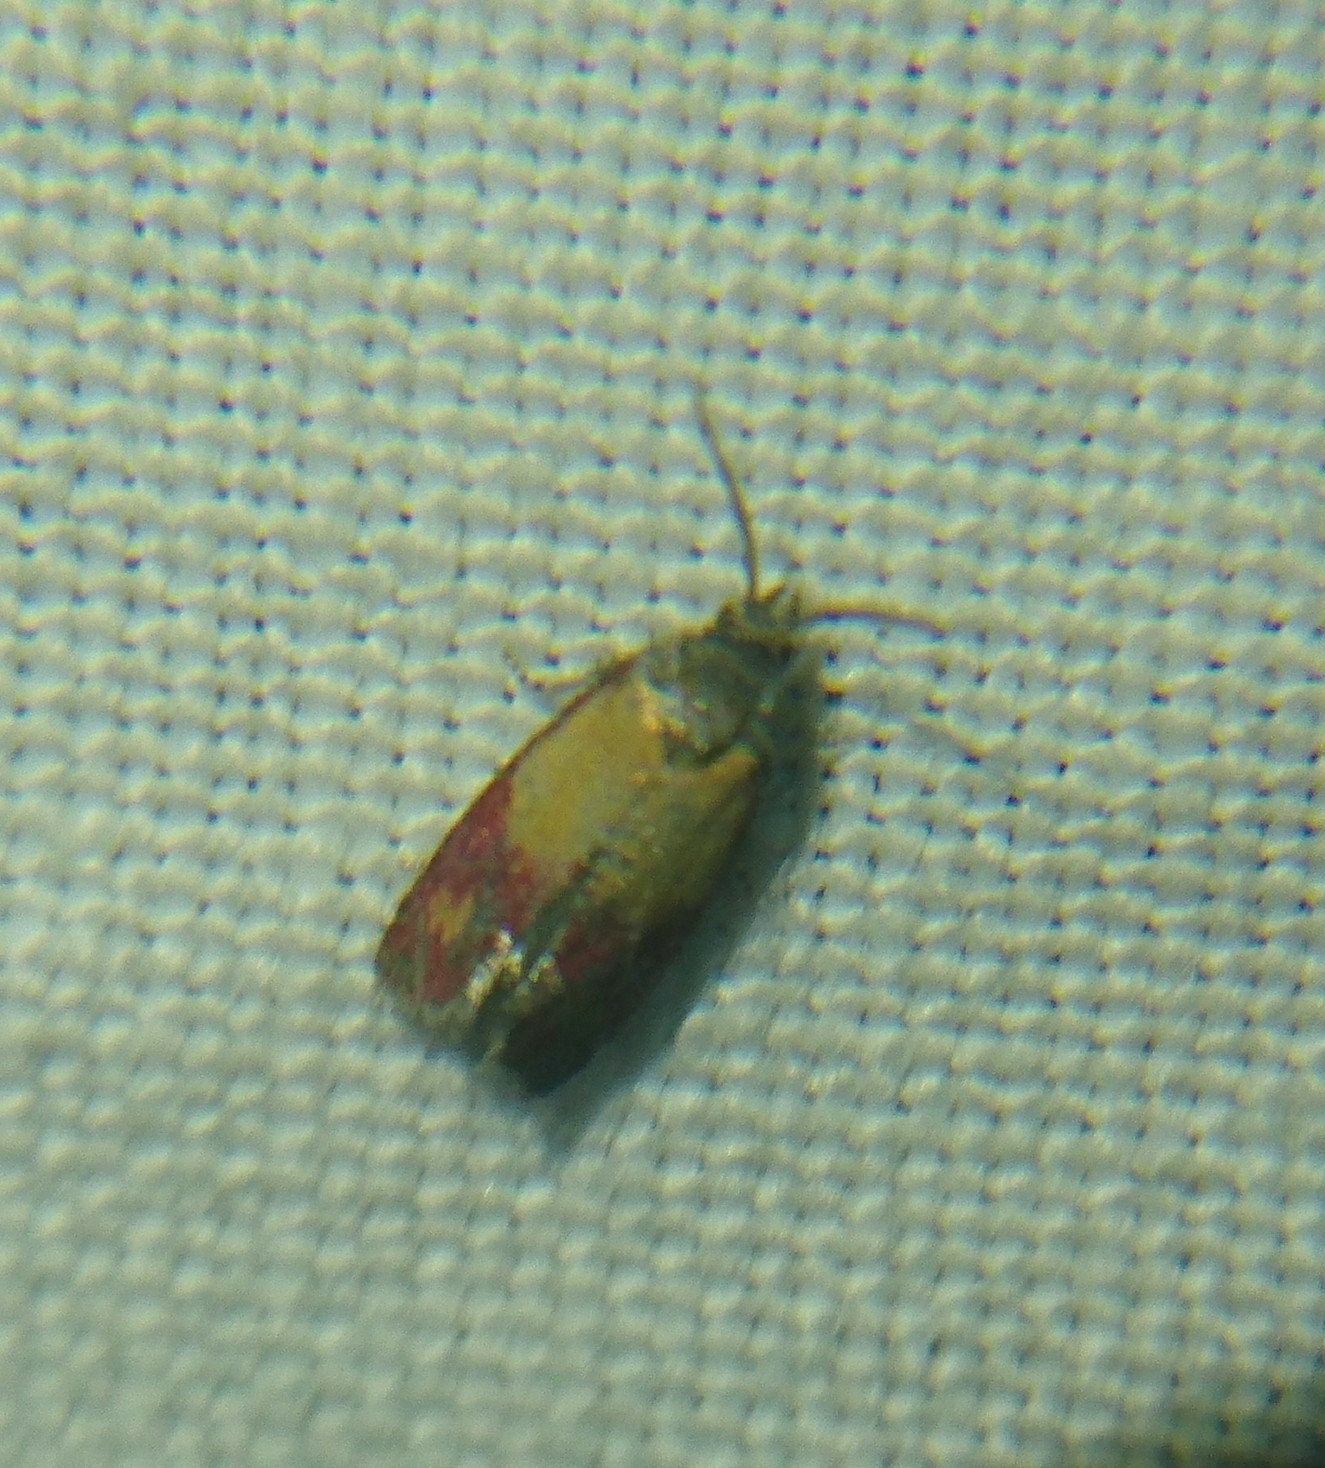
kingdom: Animalia
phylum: Arthropoda
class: Insecta
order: Lepidoptera
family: Tortricidae
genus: Conchylis
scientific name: Conchylis oenotherana
